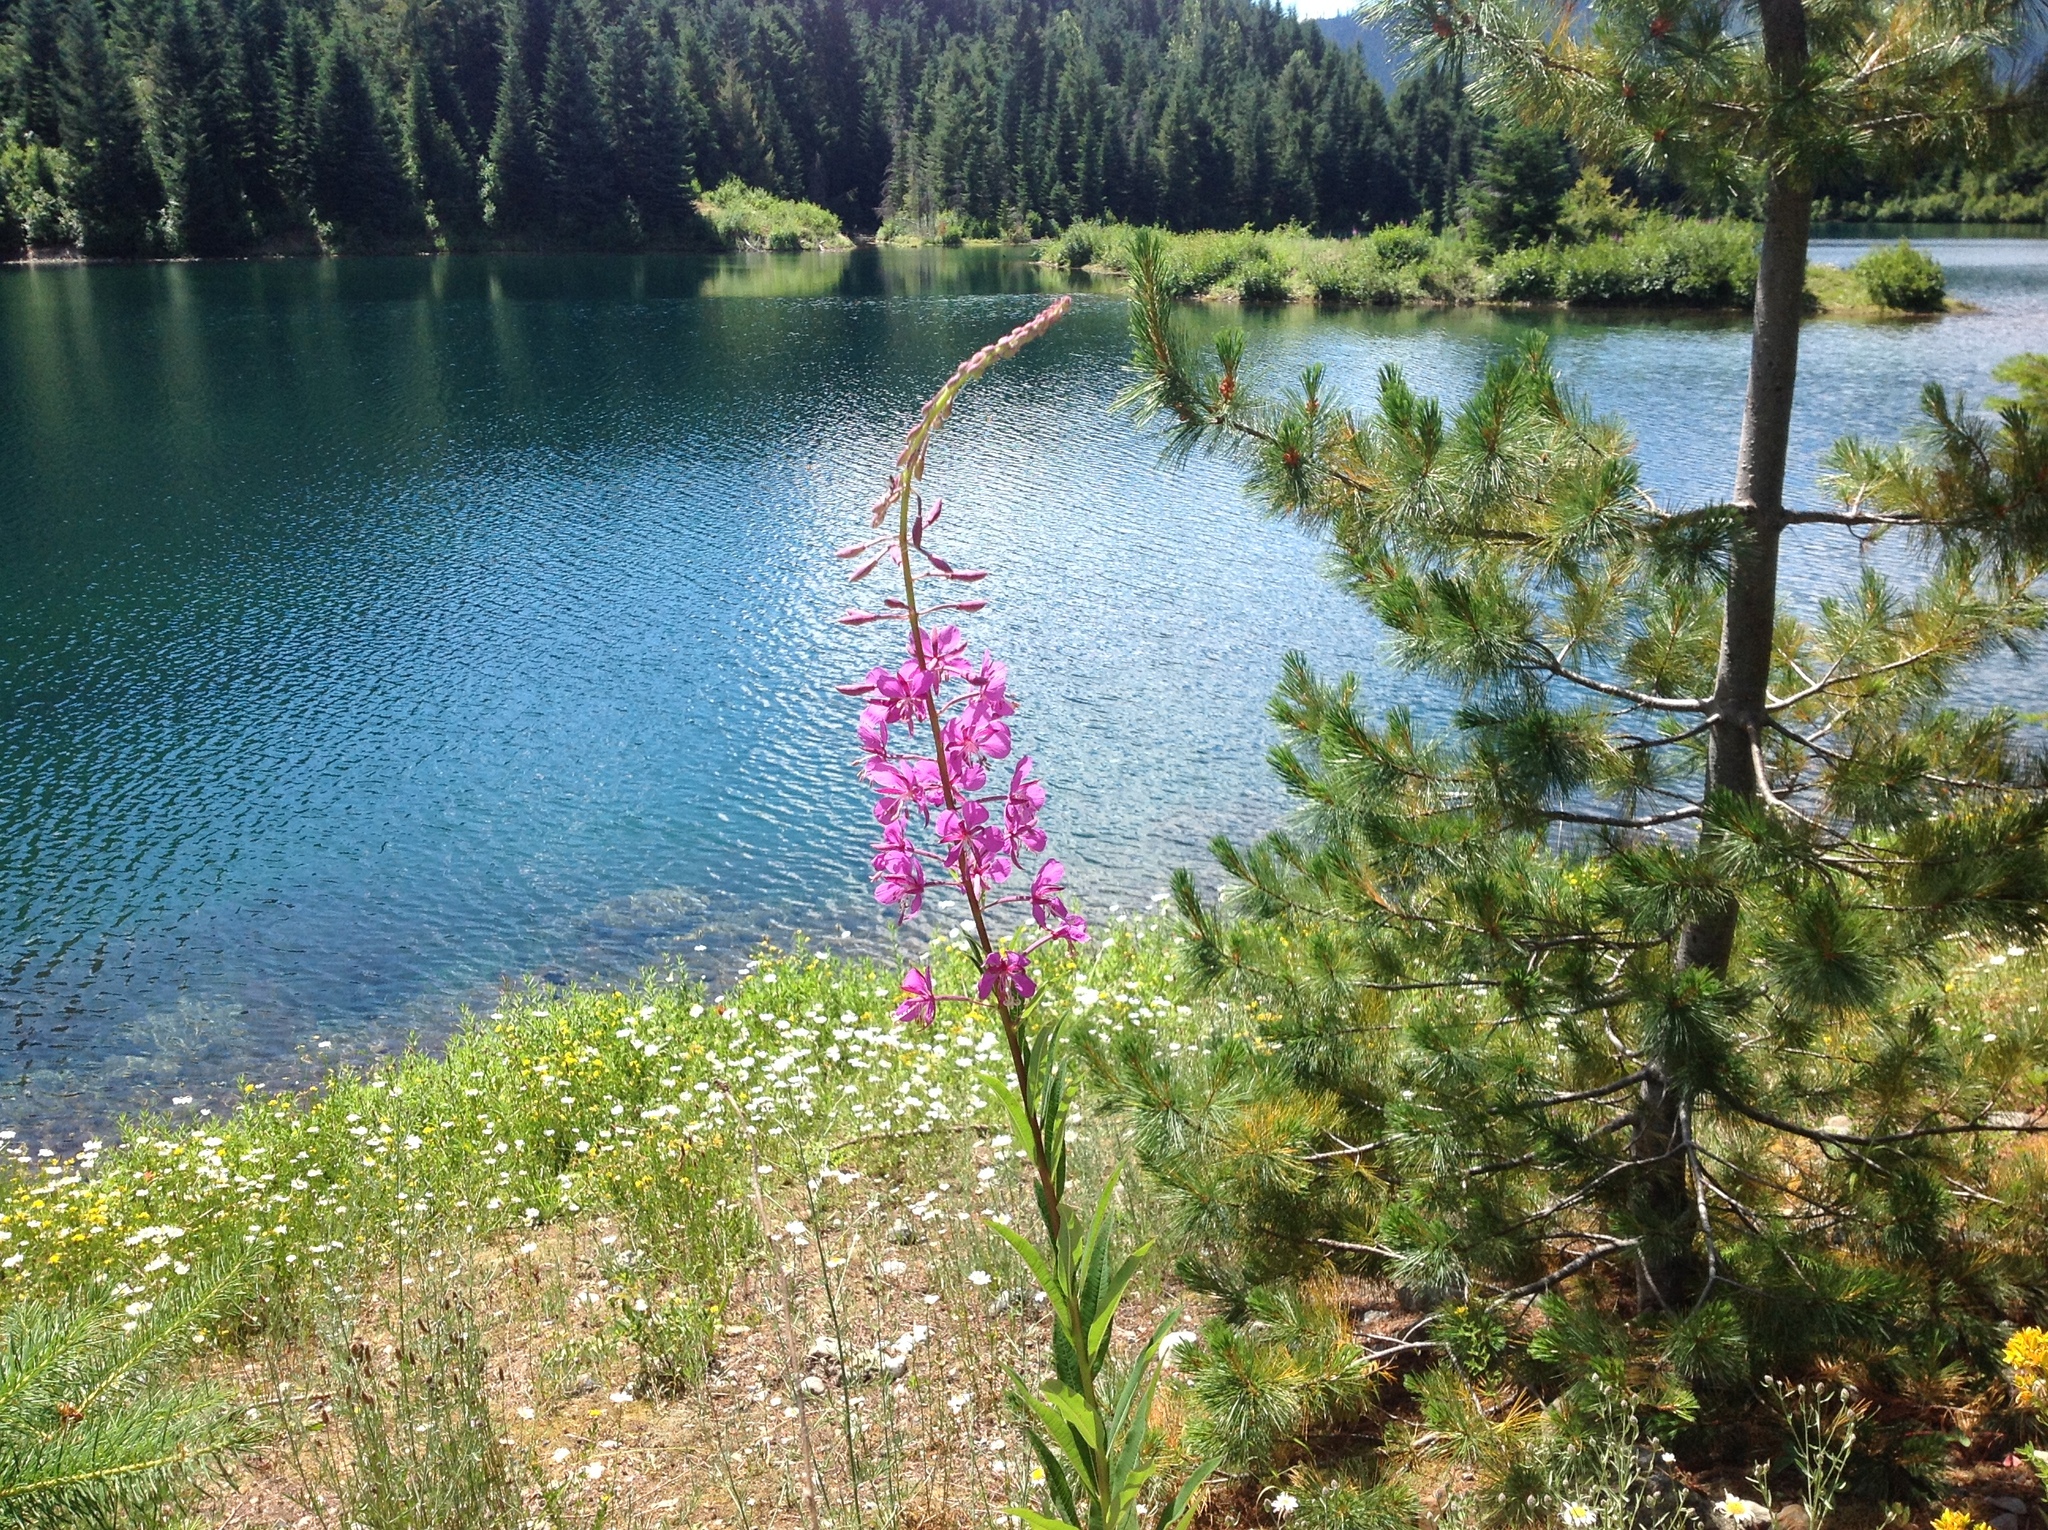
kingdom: Plantae
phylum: Tracheophyta
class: Magnoliopsida
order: Myrtales
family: Onagraceae
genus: Chamaenerion
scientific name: Chamaenerion angustifolium
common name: Fireweed
